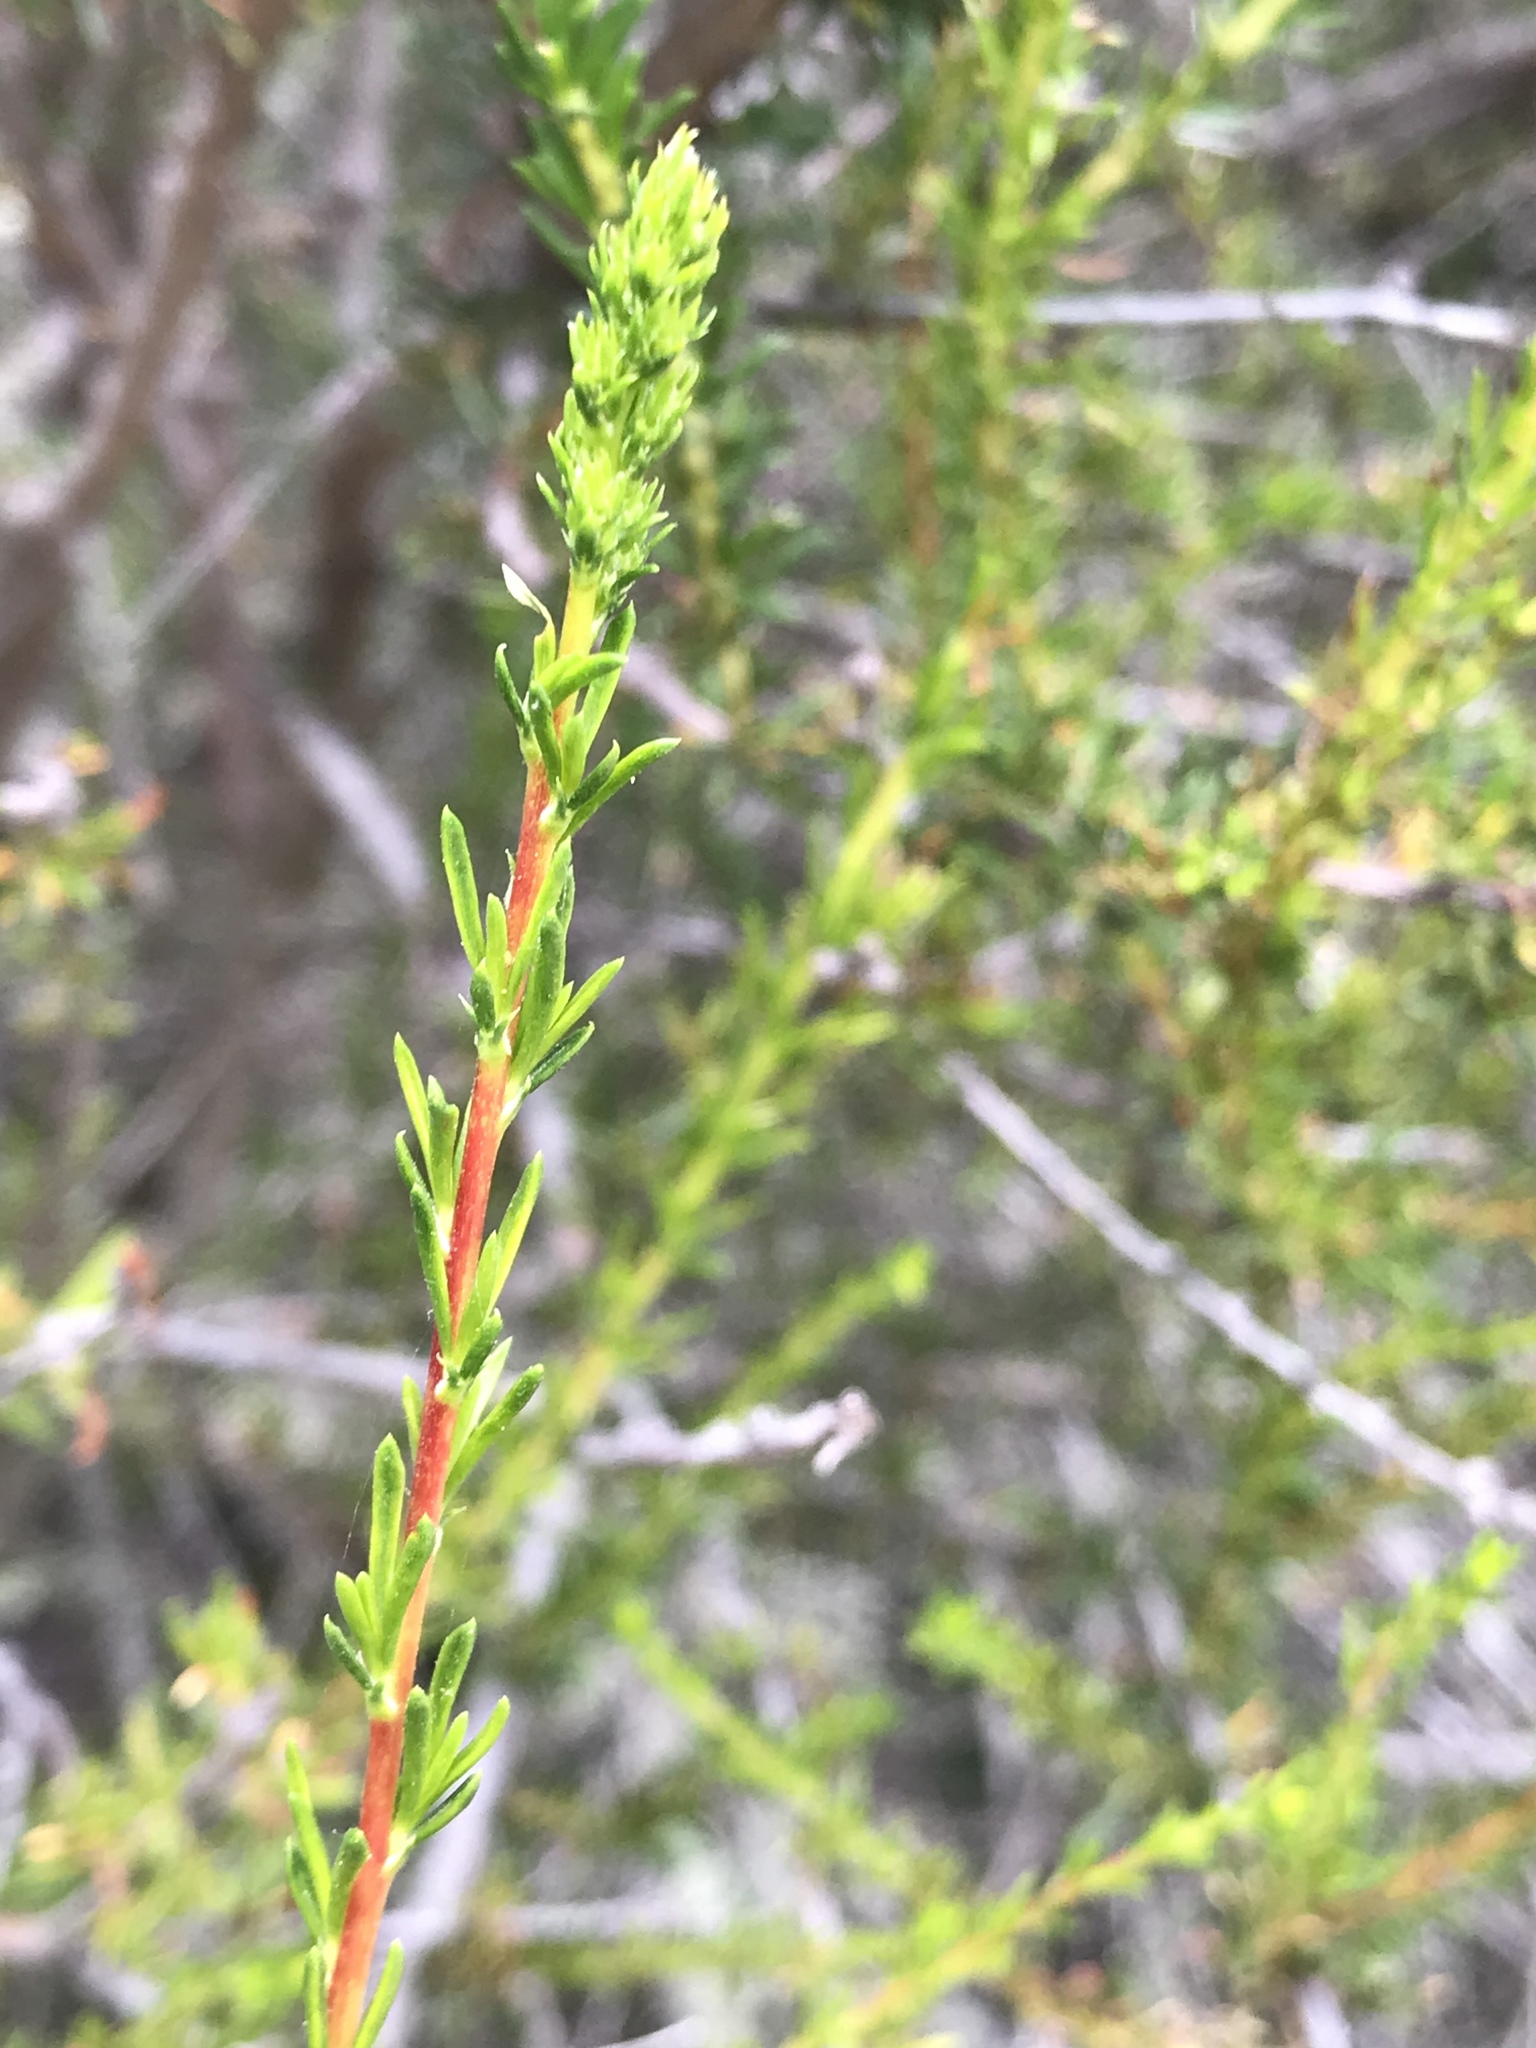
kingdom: Plantae
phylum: Tracheophyta
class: Magnoliopsida
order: Rosales
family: Rosaceae
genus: Adenostoma
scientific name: Adenostoma fasciculatum
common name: Chamise
